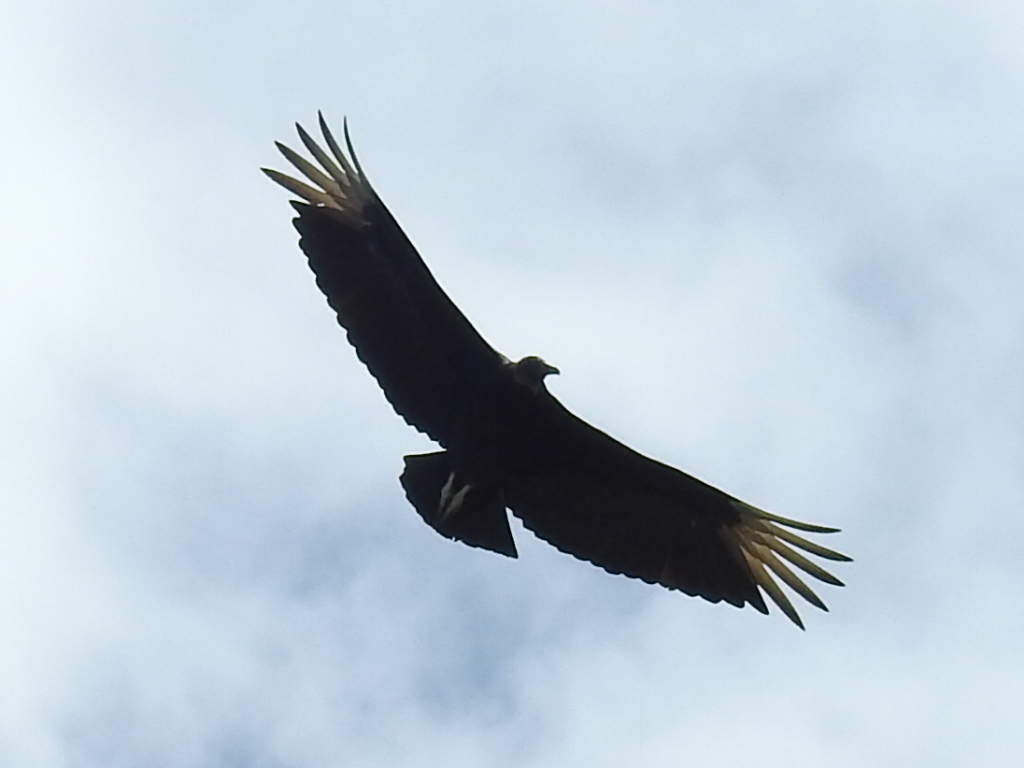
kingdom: Animalia
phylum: Chordata
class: Aves
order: Accipitriformes
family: Cathartidae
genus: Coragyps
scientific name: Coragyps atratus
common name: Black vulture
